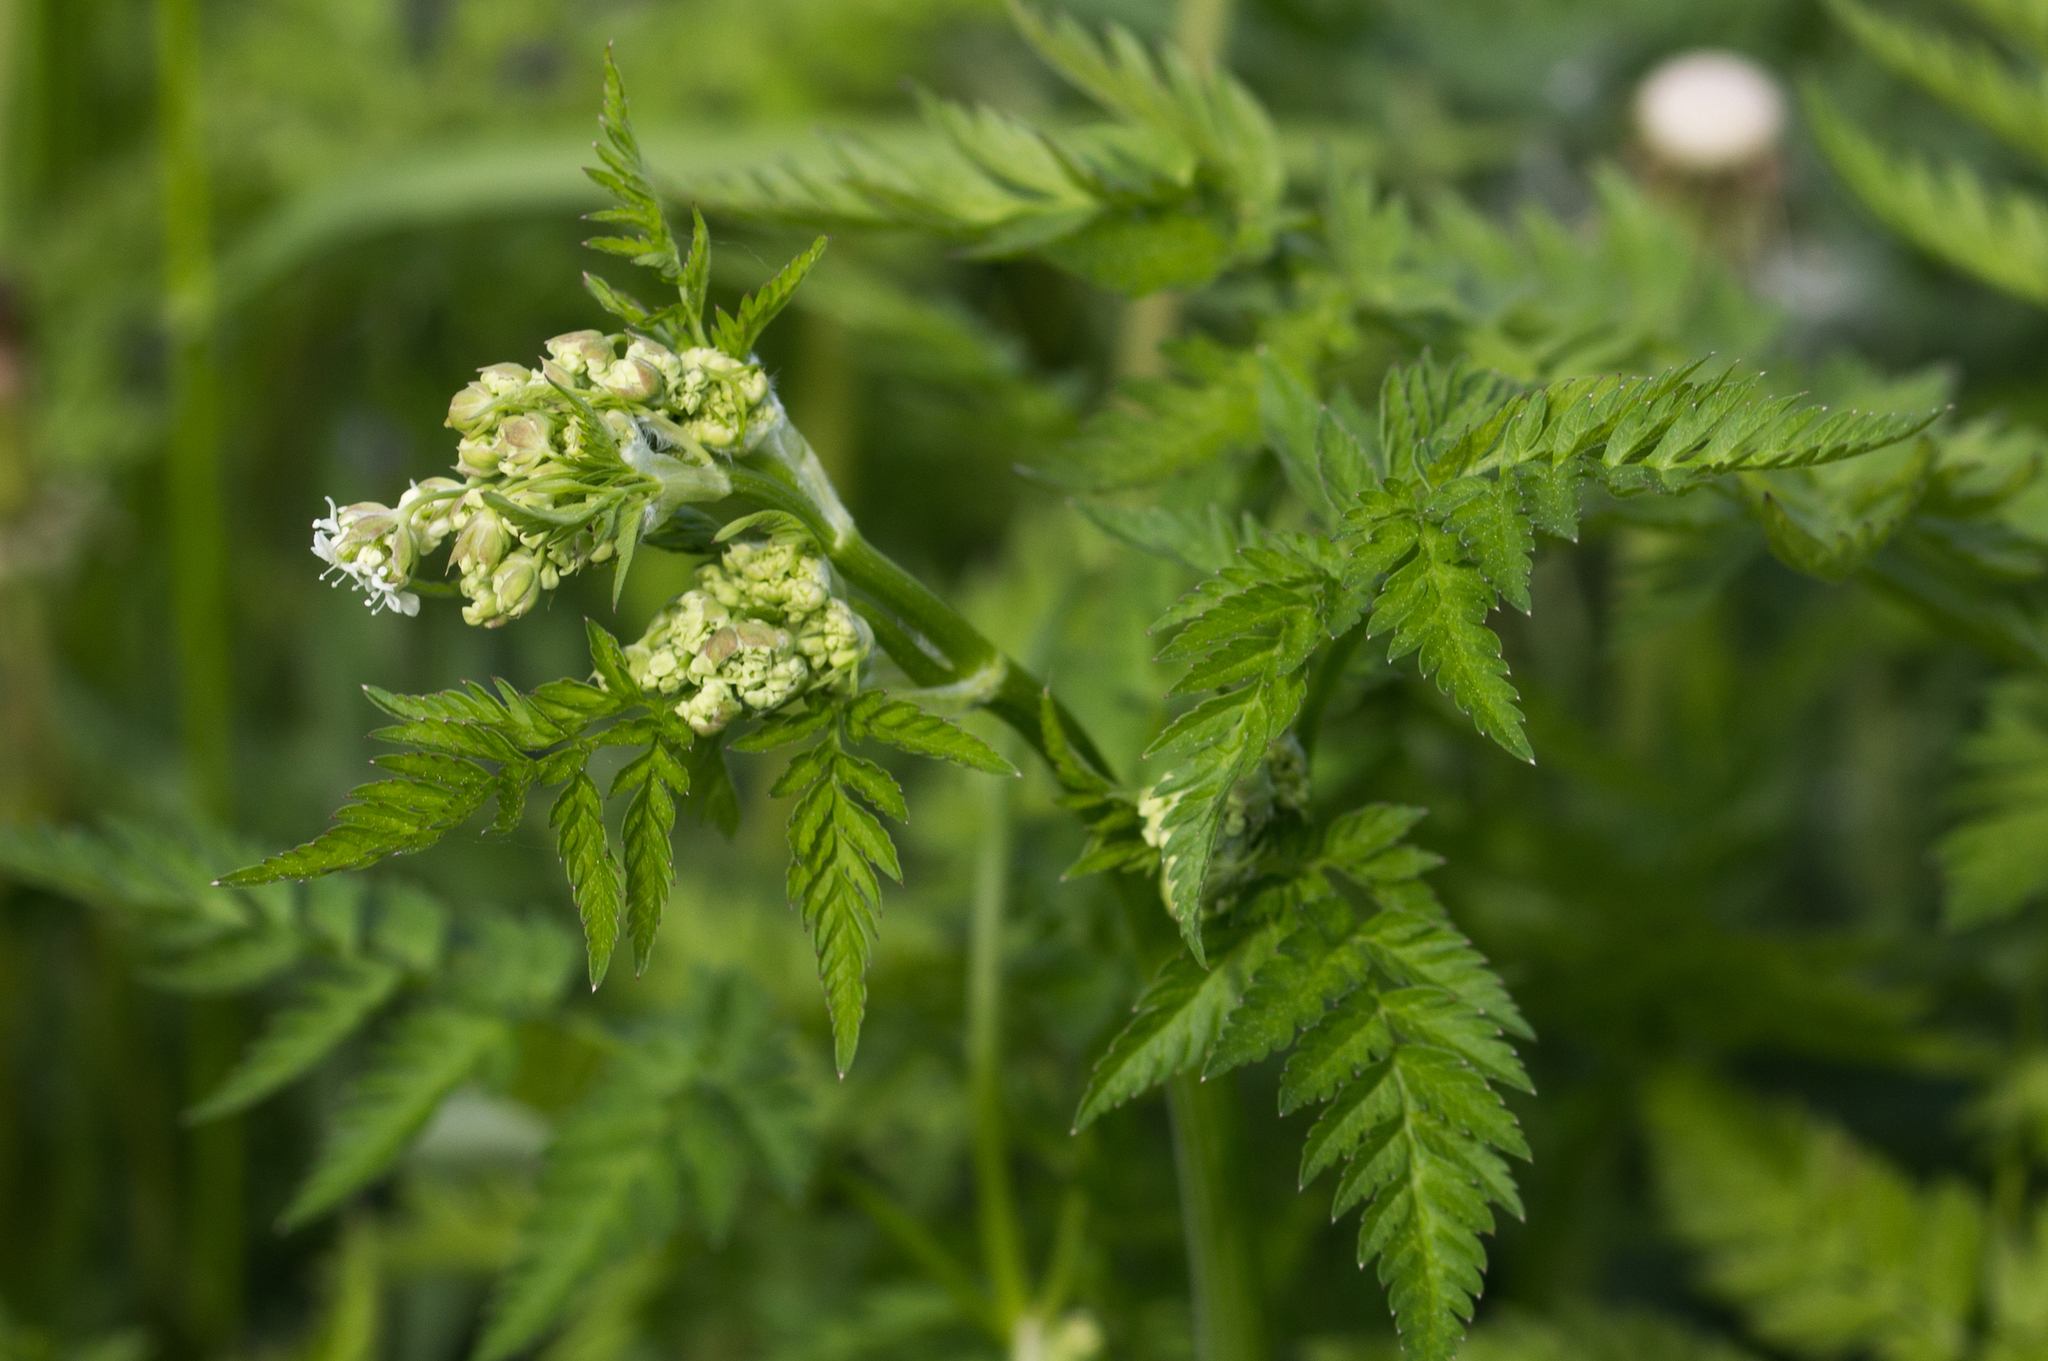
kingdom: Plantae
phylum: Tracheophyta
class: Magnoliopsida
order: Apiales
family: Apiaceae
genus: Anthriscus
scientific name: Anthriscus sylvestris
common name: Cow parsley
